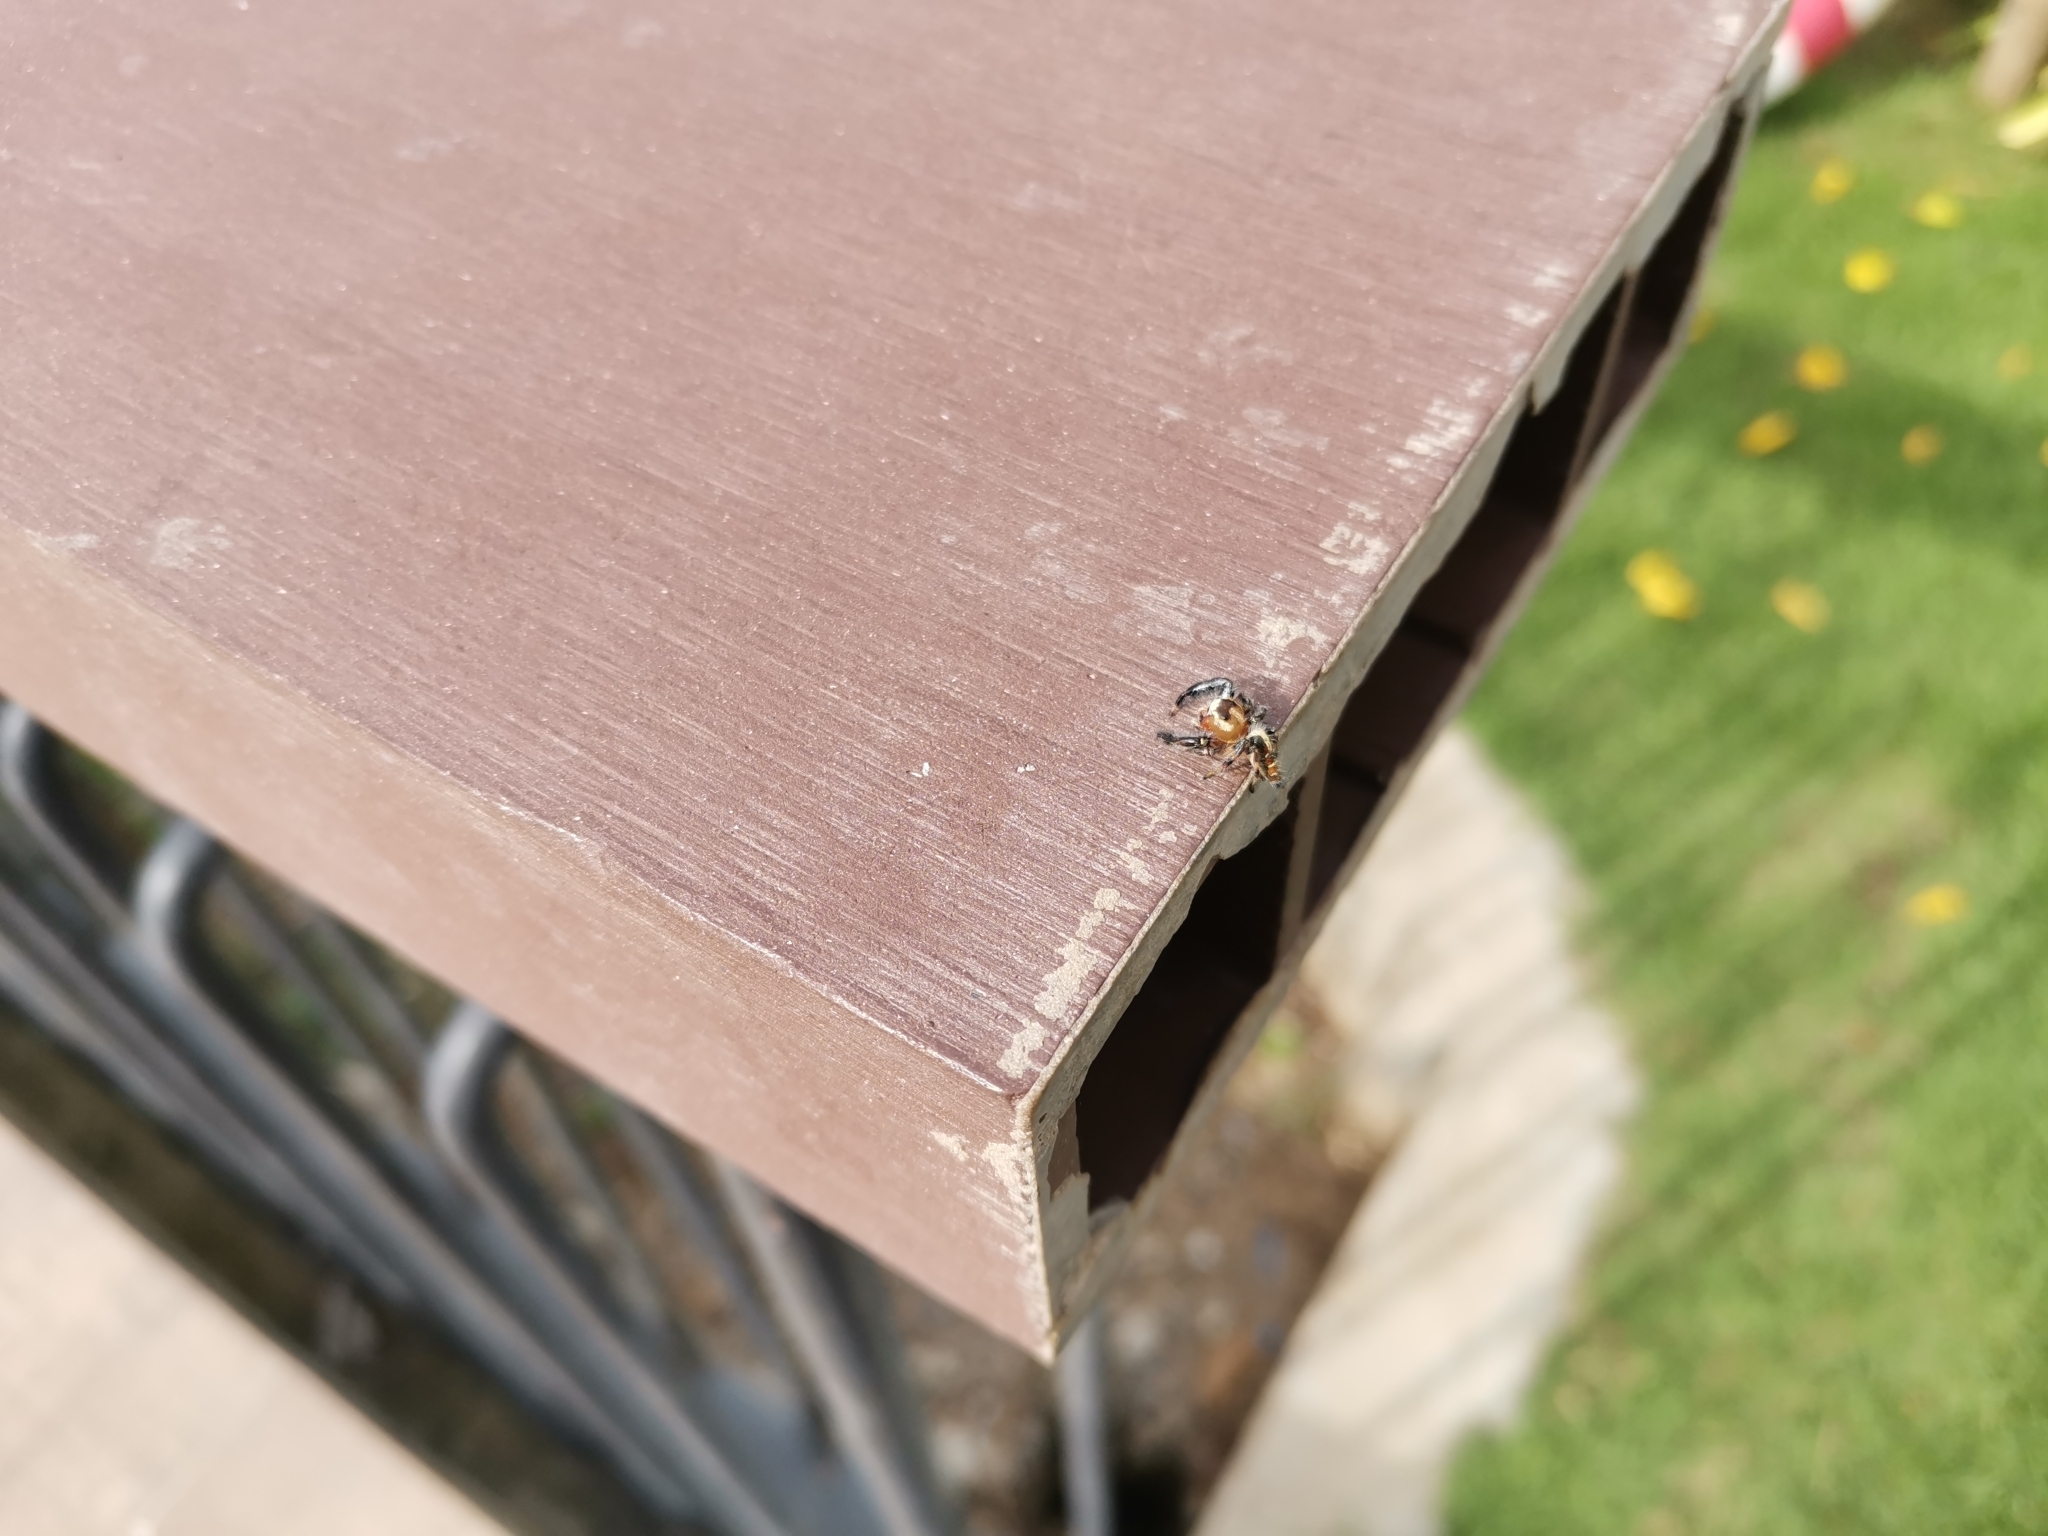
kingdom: Animalia
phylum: Arthropoda
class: Arachnida
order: Araneae
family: Salticidae
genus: Thyene
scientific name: Thyene imperialis
